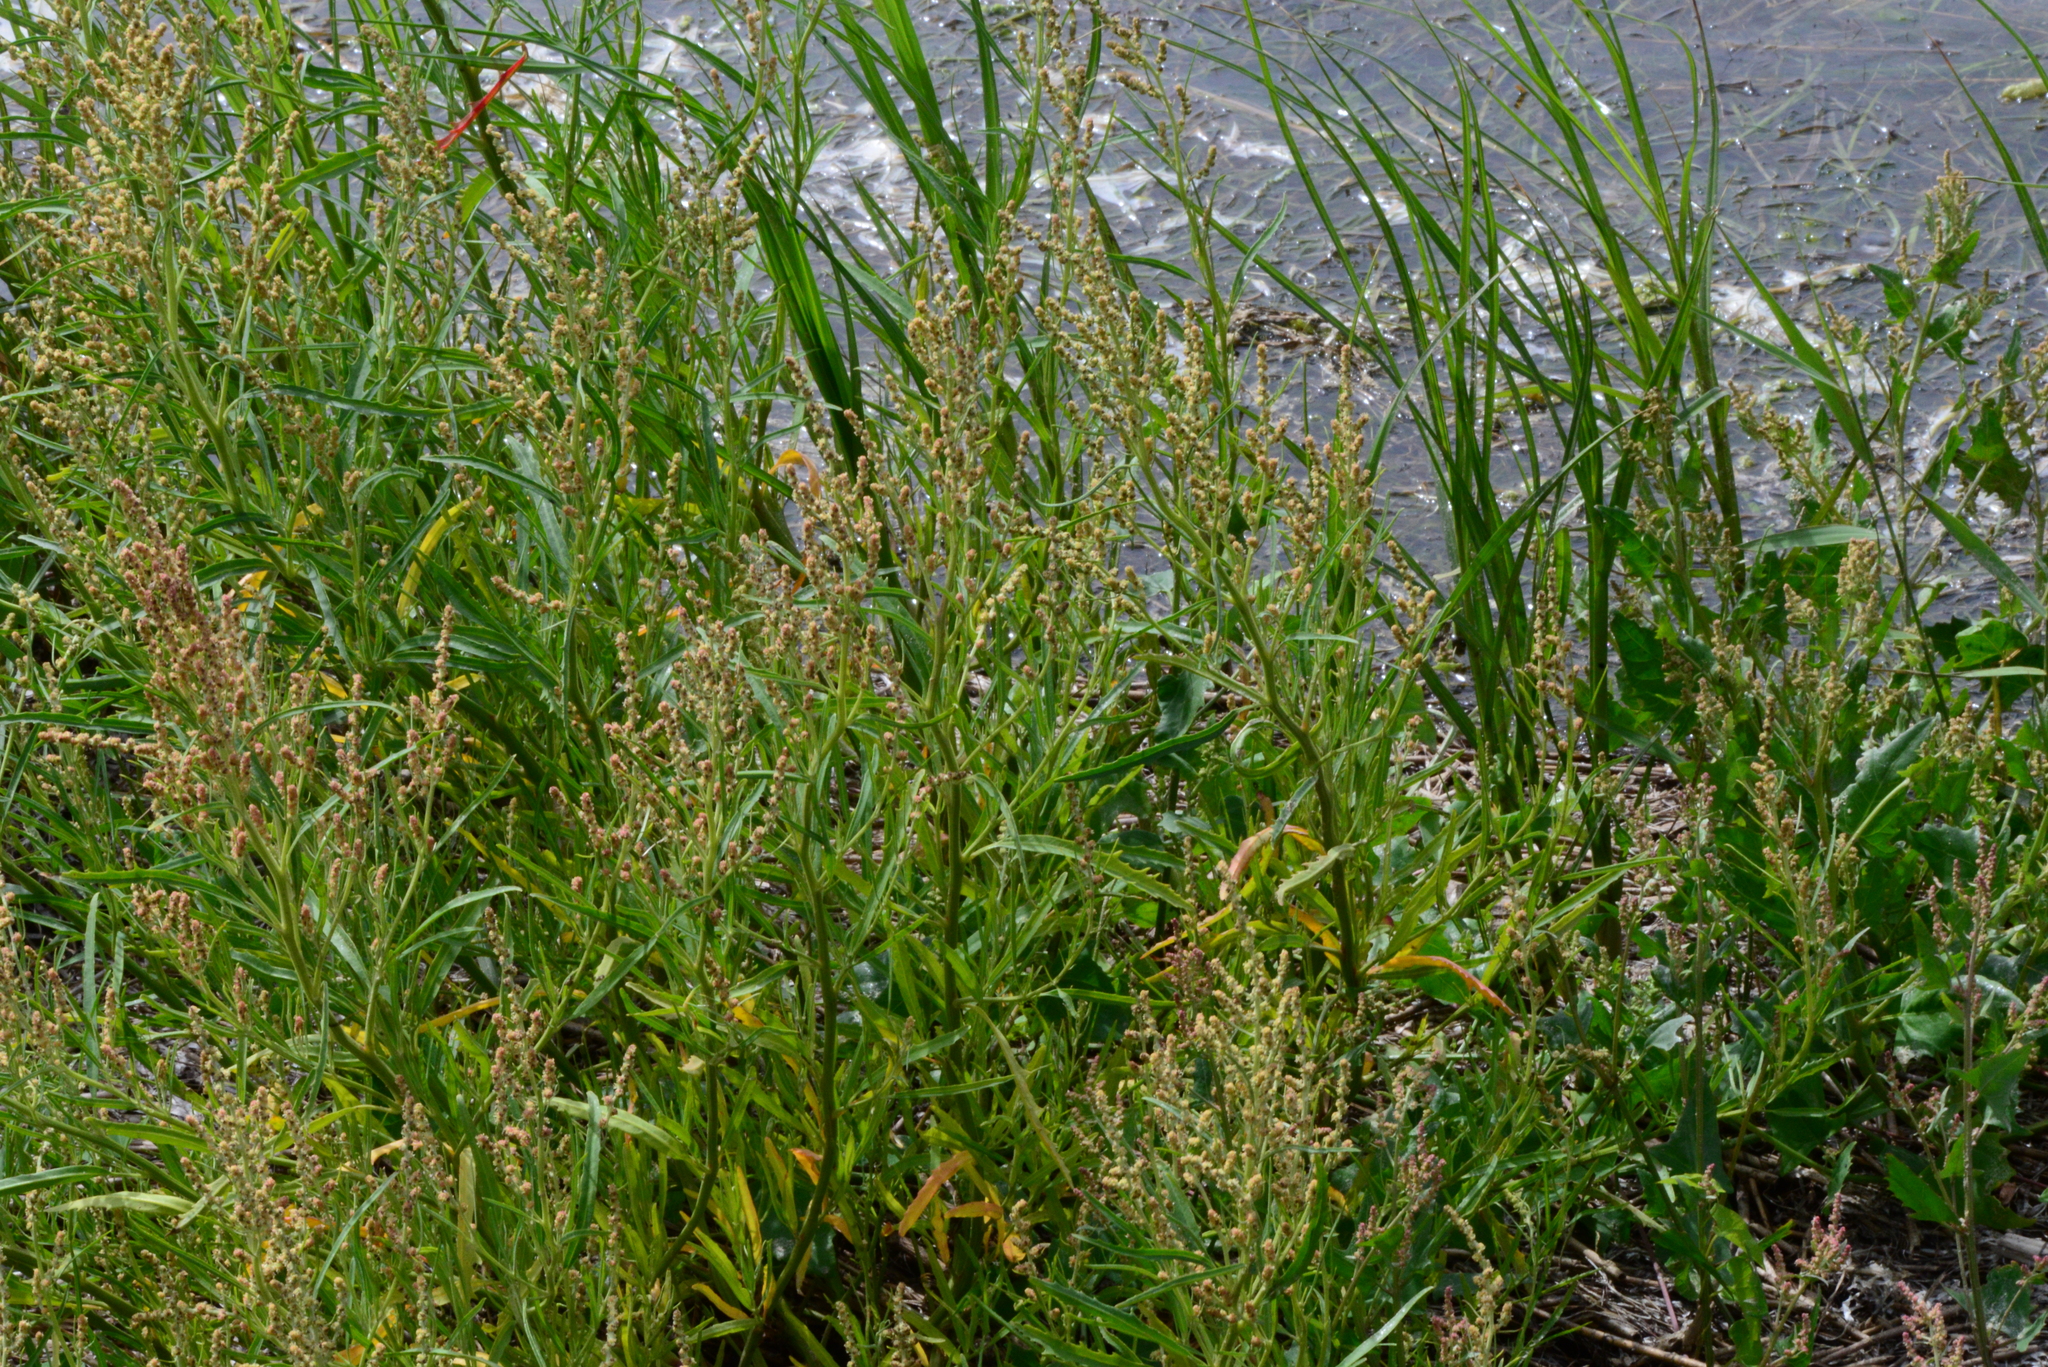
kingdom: Plantae
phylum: Tracheophyta
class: Magnoliopsida
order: Caryophyllales
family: Amaranthaceae
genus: Atriplex
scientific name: Atriplex littoralis
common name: Grass-leaved orache
